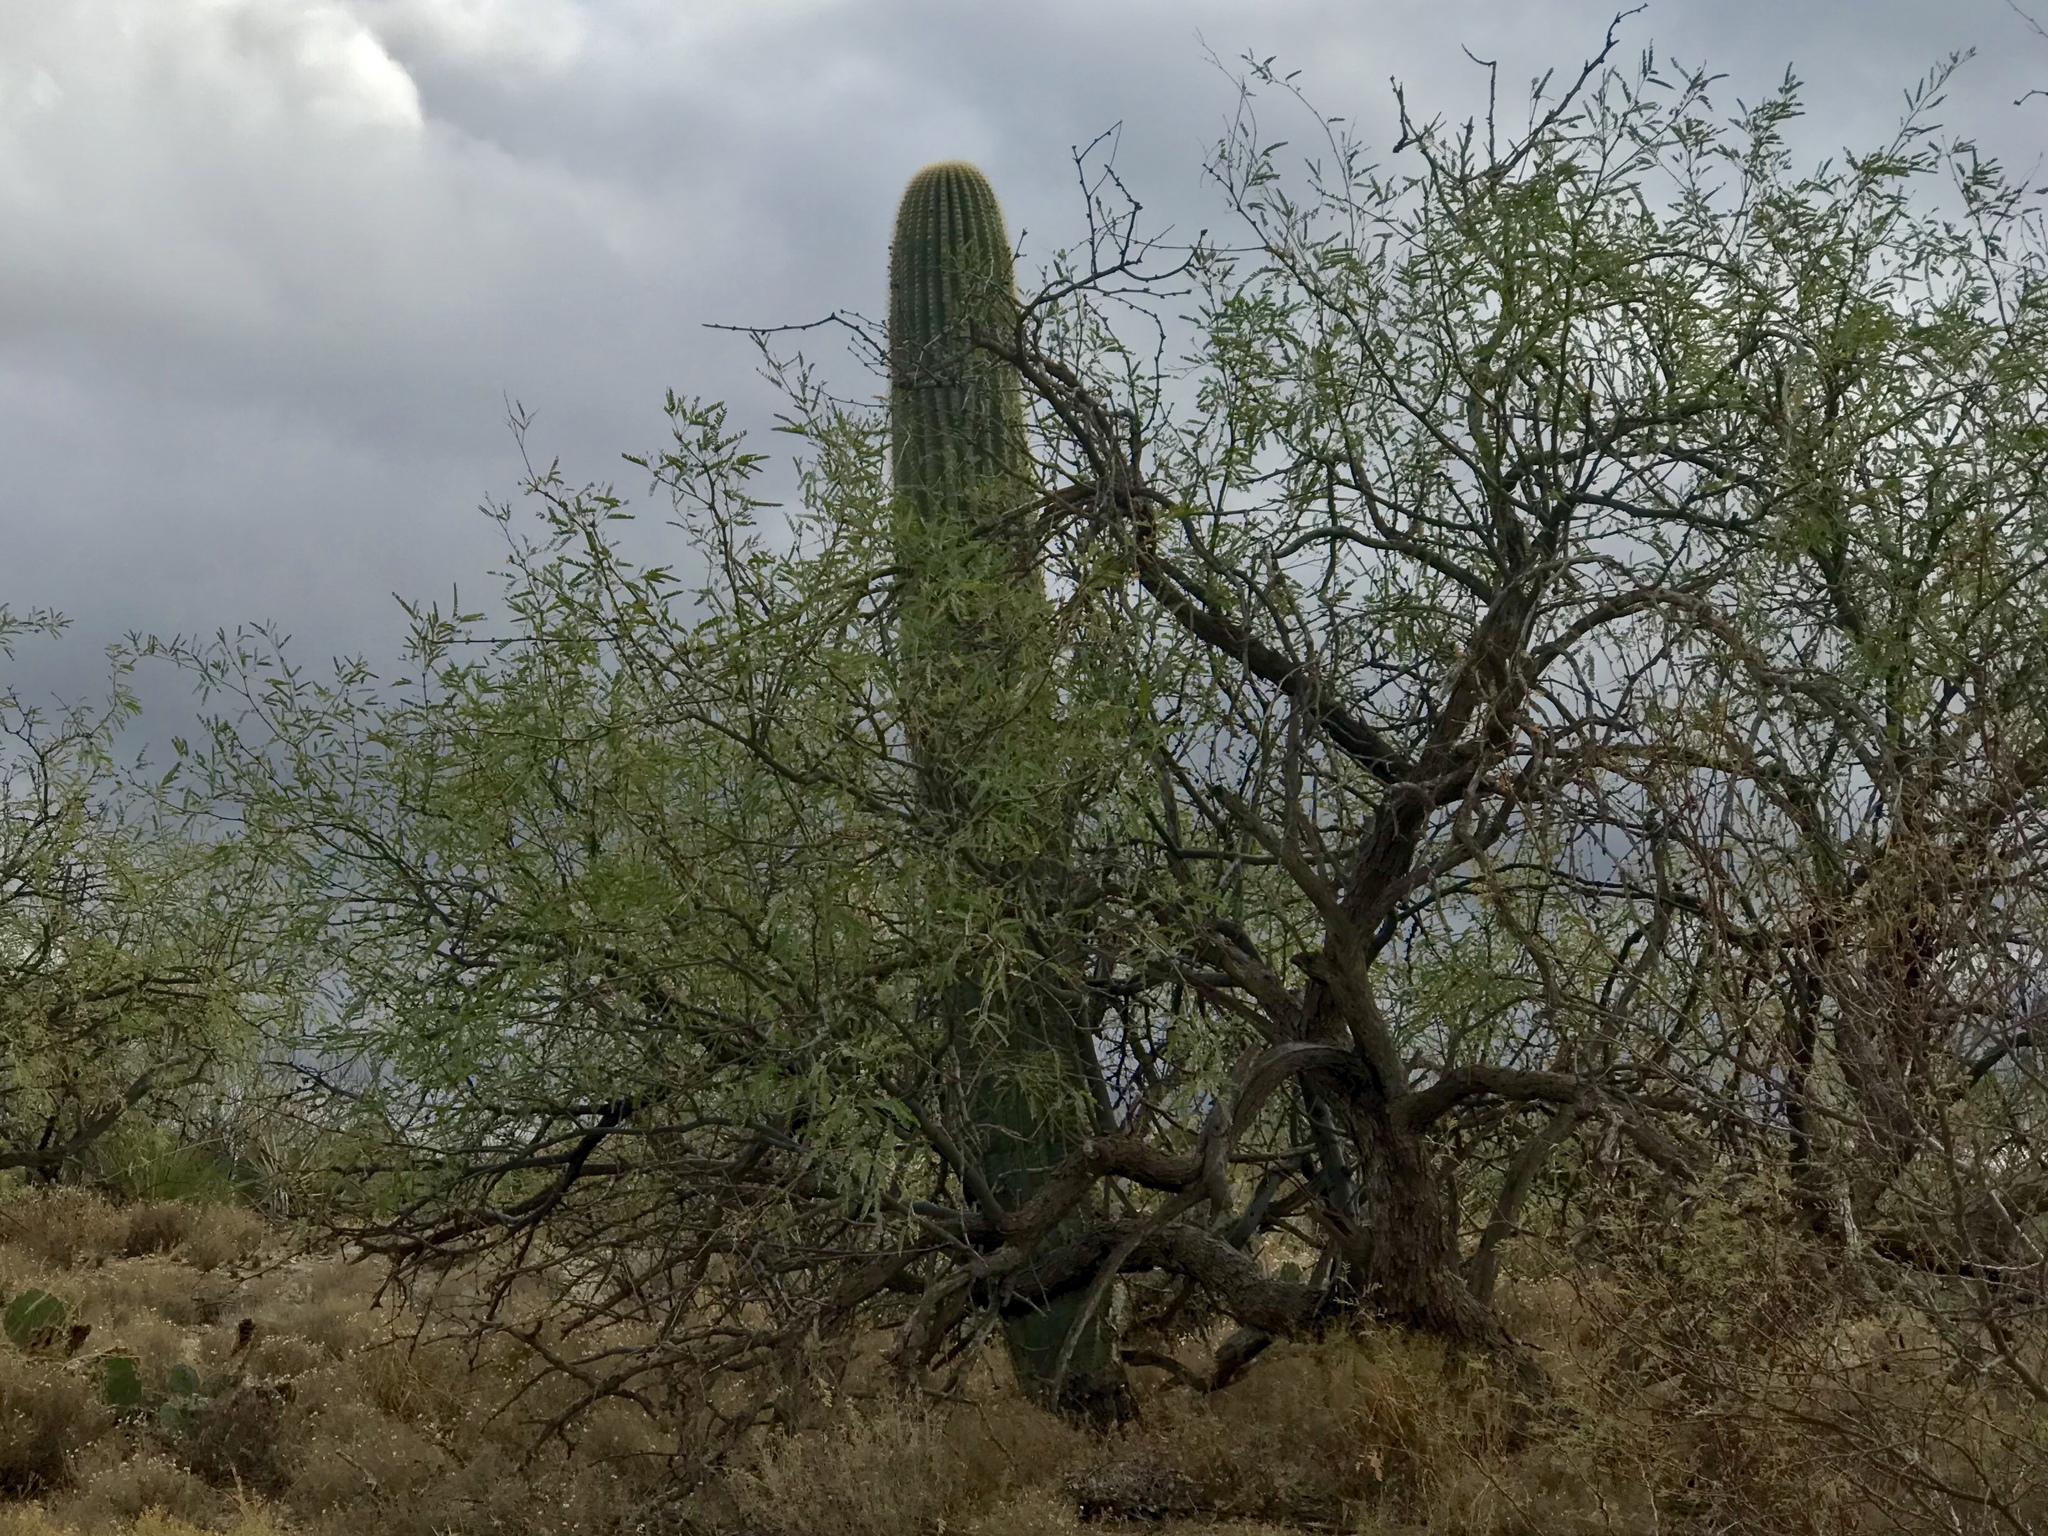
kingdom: Plantae
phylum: Tracheophyta
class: Magnoliopsida
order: Caryophyllales
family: Cactaceae
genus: Carnegiea
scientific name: Carnegiea gigantea
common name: Saguaro
